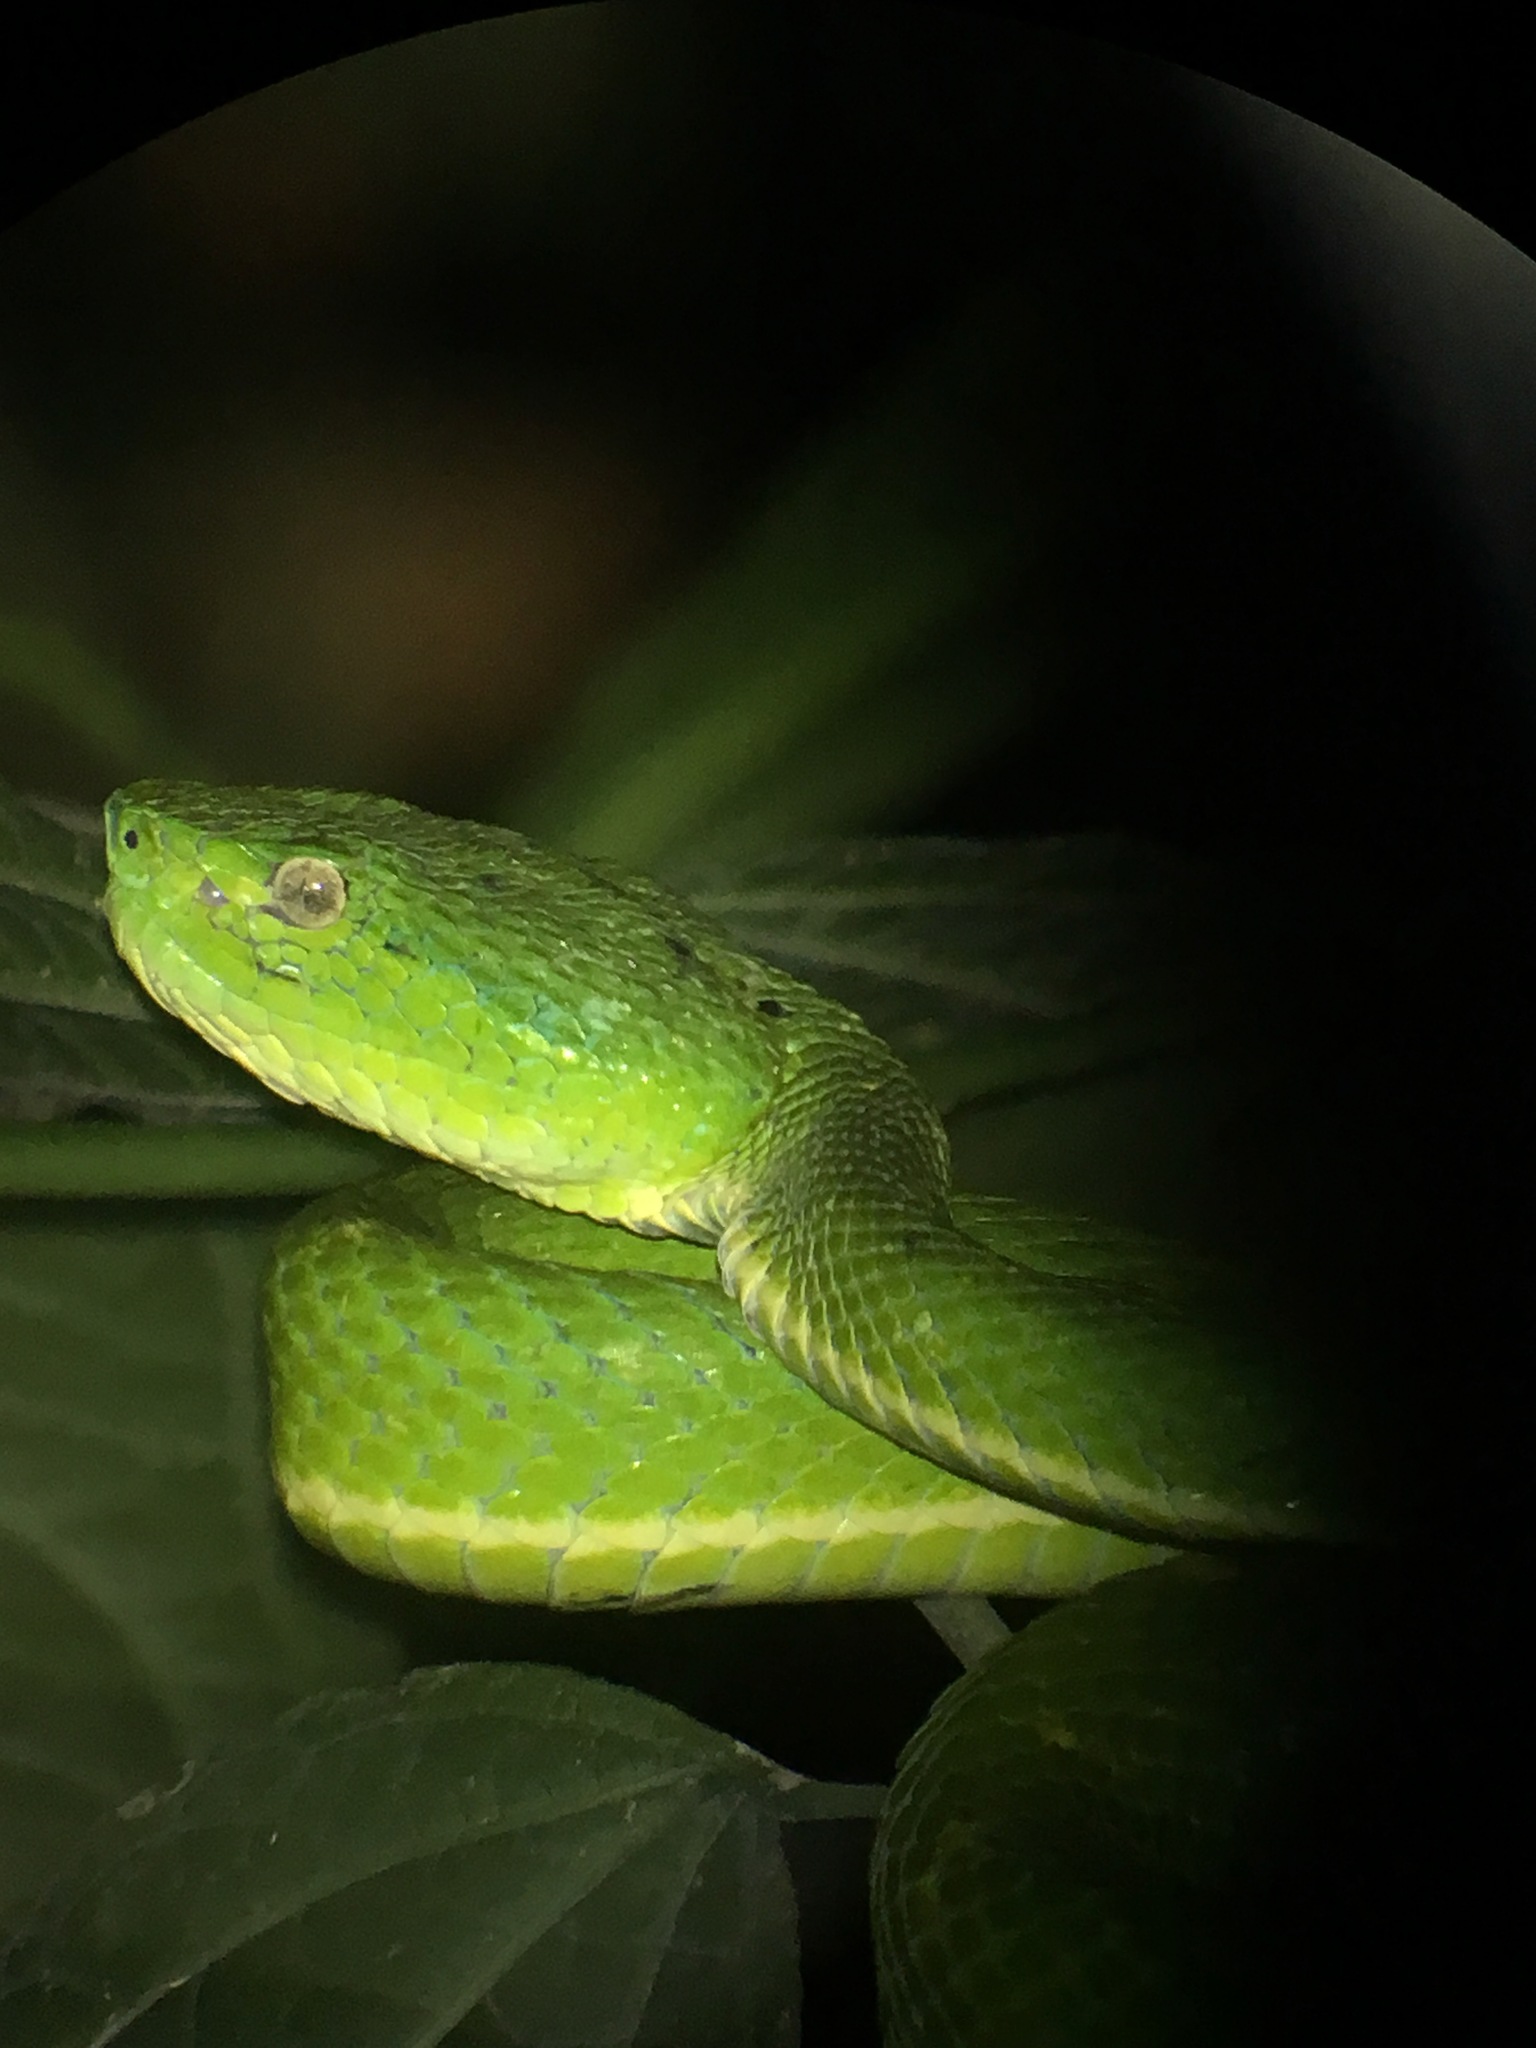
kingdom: Animalia
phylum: Chordata
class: Squamata
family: Viperidae
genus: Bothriechis
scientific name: Bothriechis lateralis
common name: Coffee palm viper
